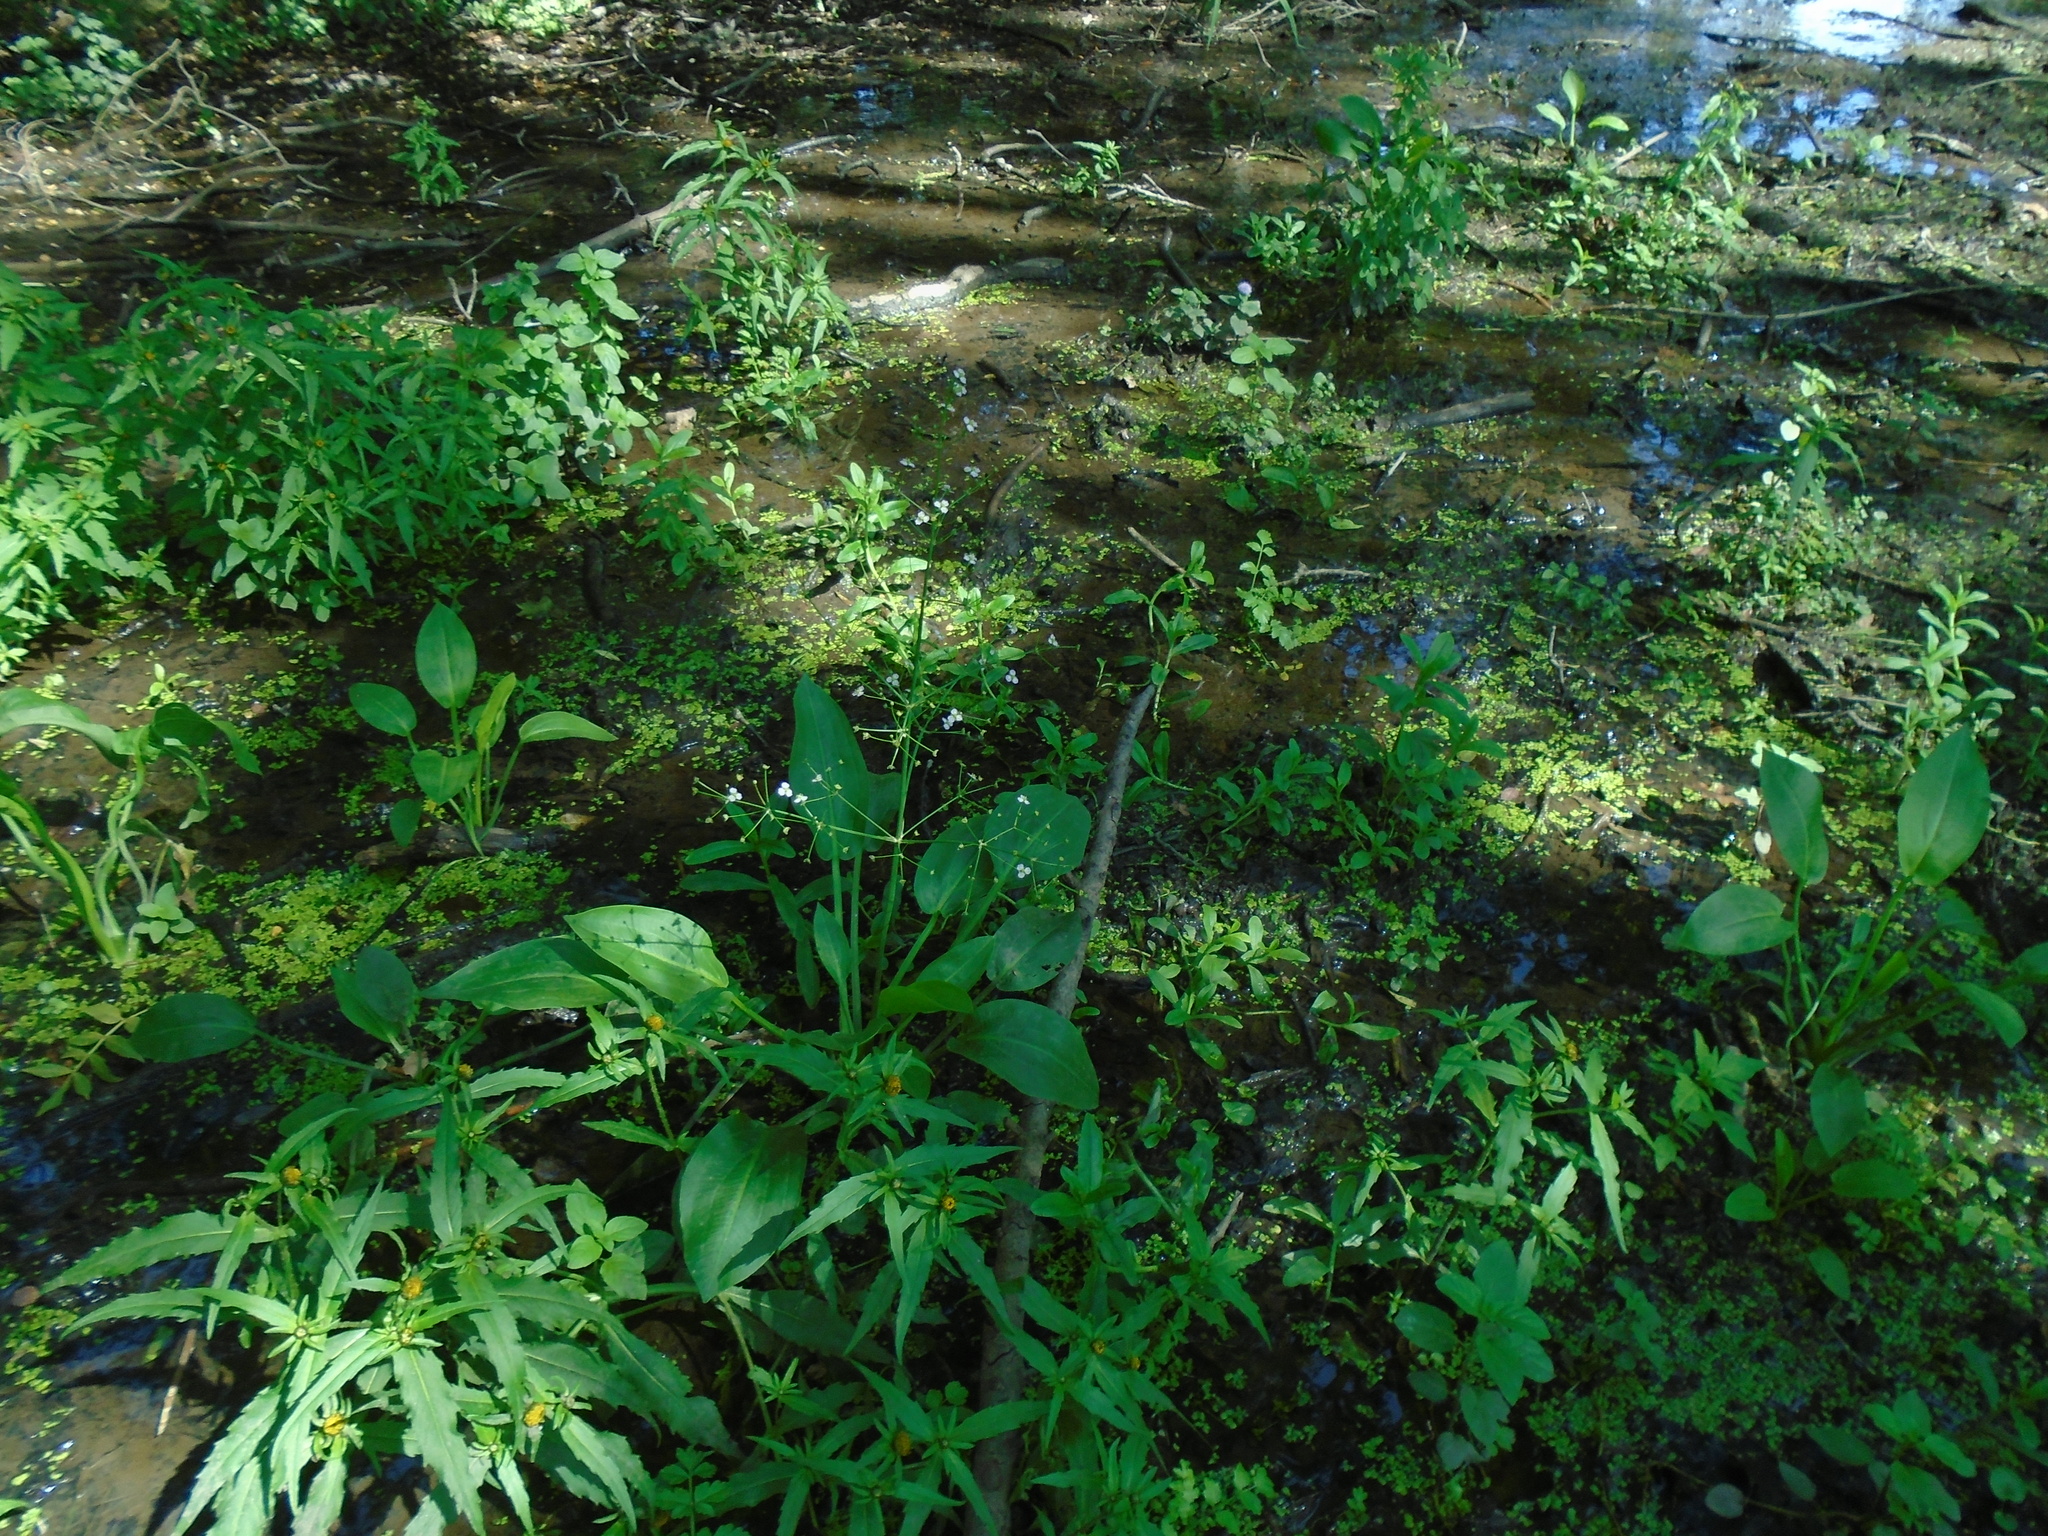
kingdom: Plantae
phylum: Tracheophyta
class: Liliopsida
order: Alismatales
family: Alismataceae
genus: Alisma
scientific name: Alisma plantago-aquatica
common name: Water-plantain
